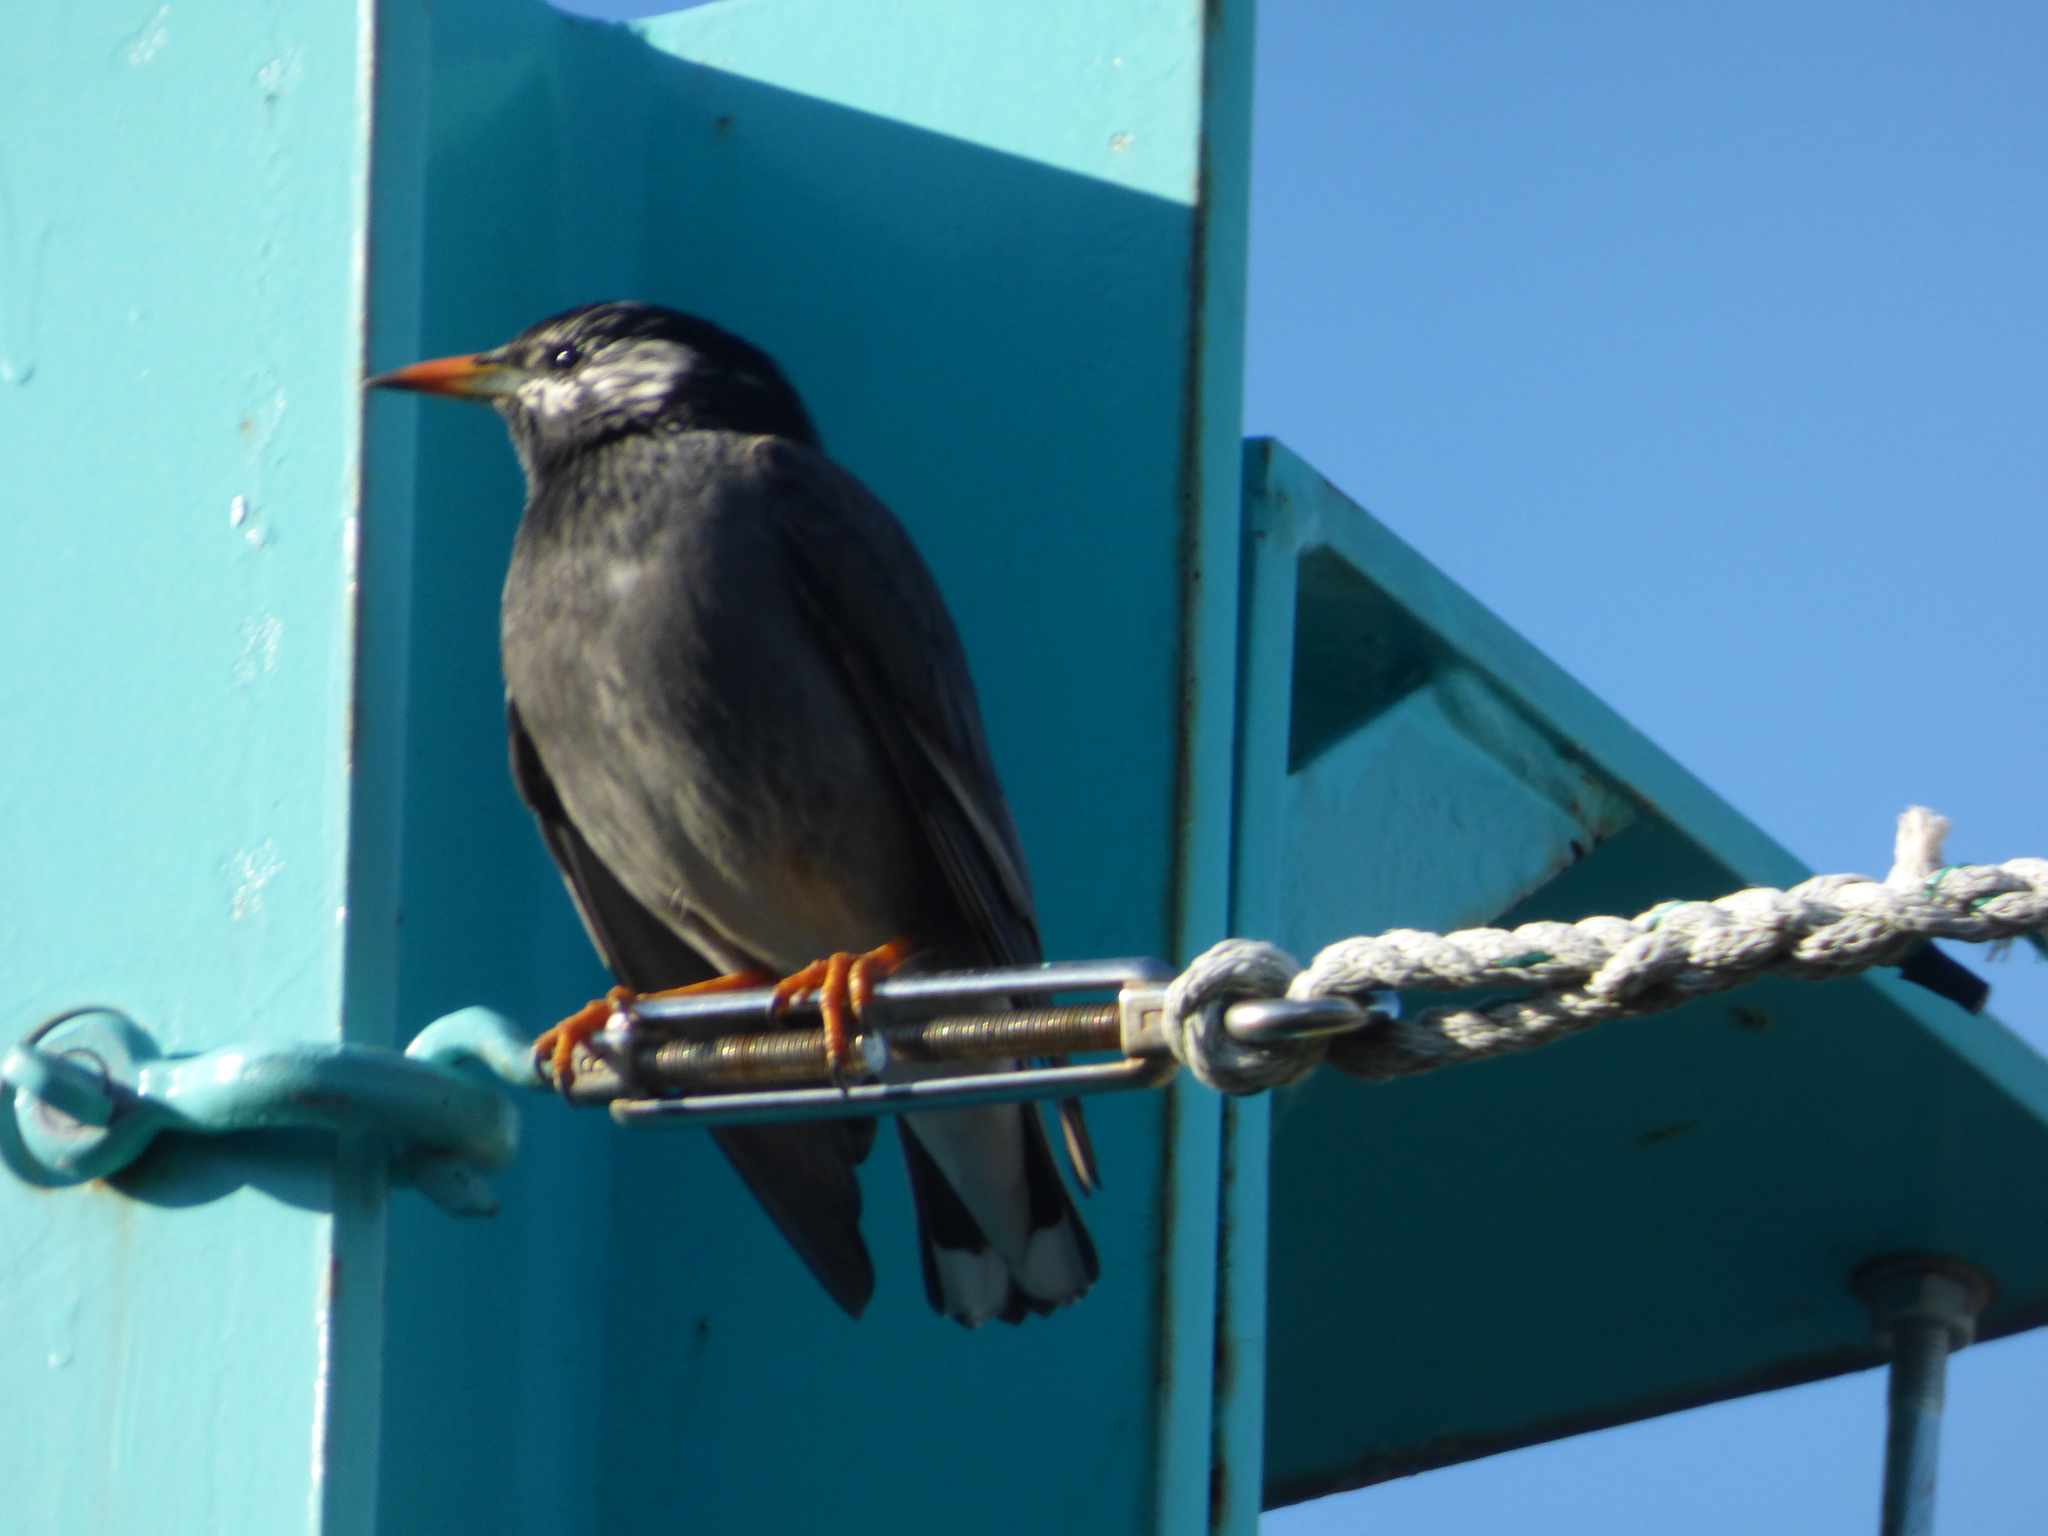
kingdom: Animalia
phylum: Chordata
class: Aves
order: Passeriformes
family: Sturnidae
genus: Spodiopsar
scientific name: Spodiopsar cineraceus
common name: White-cheeked starling
